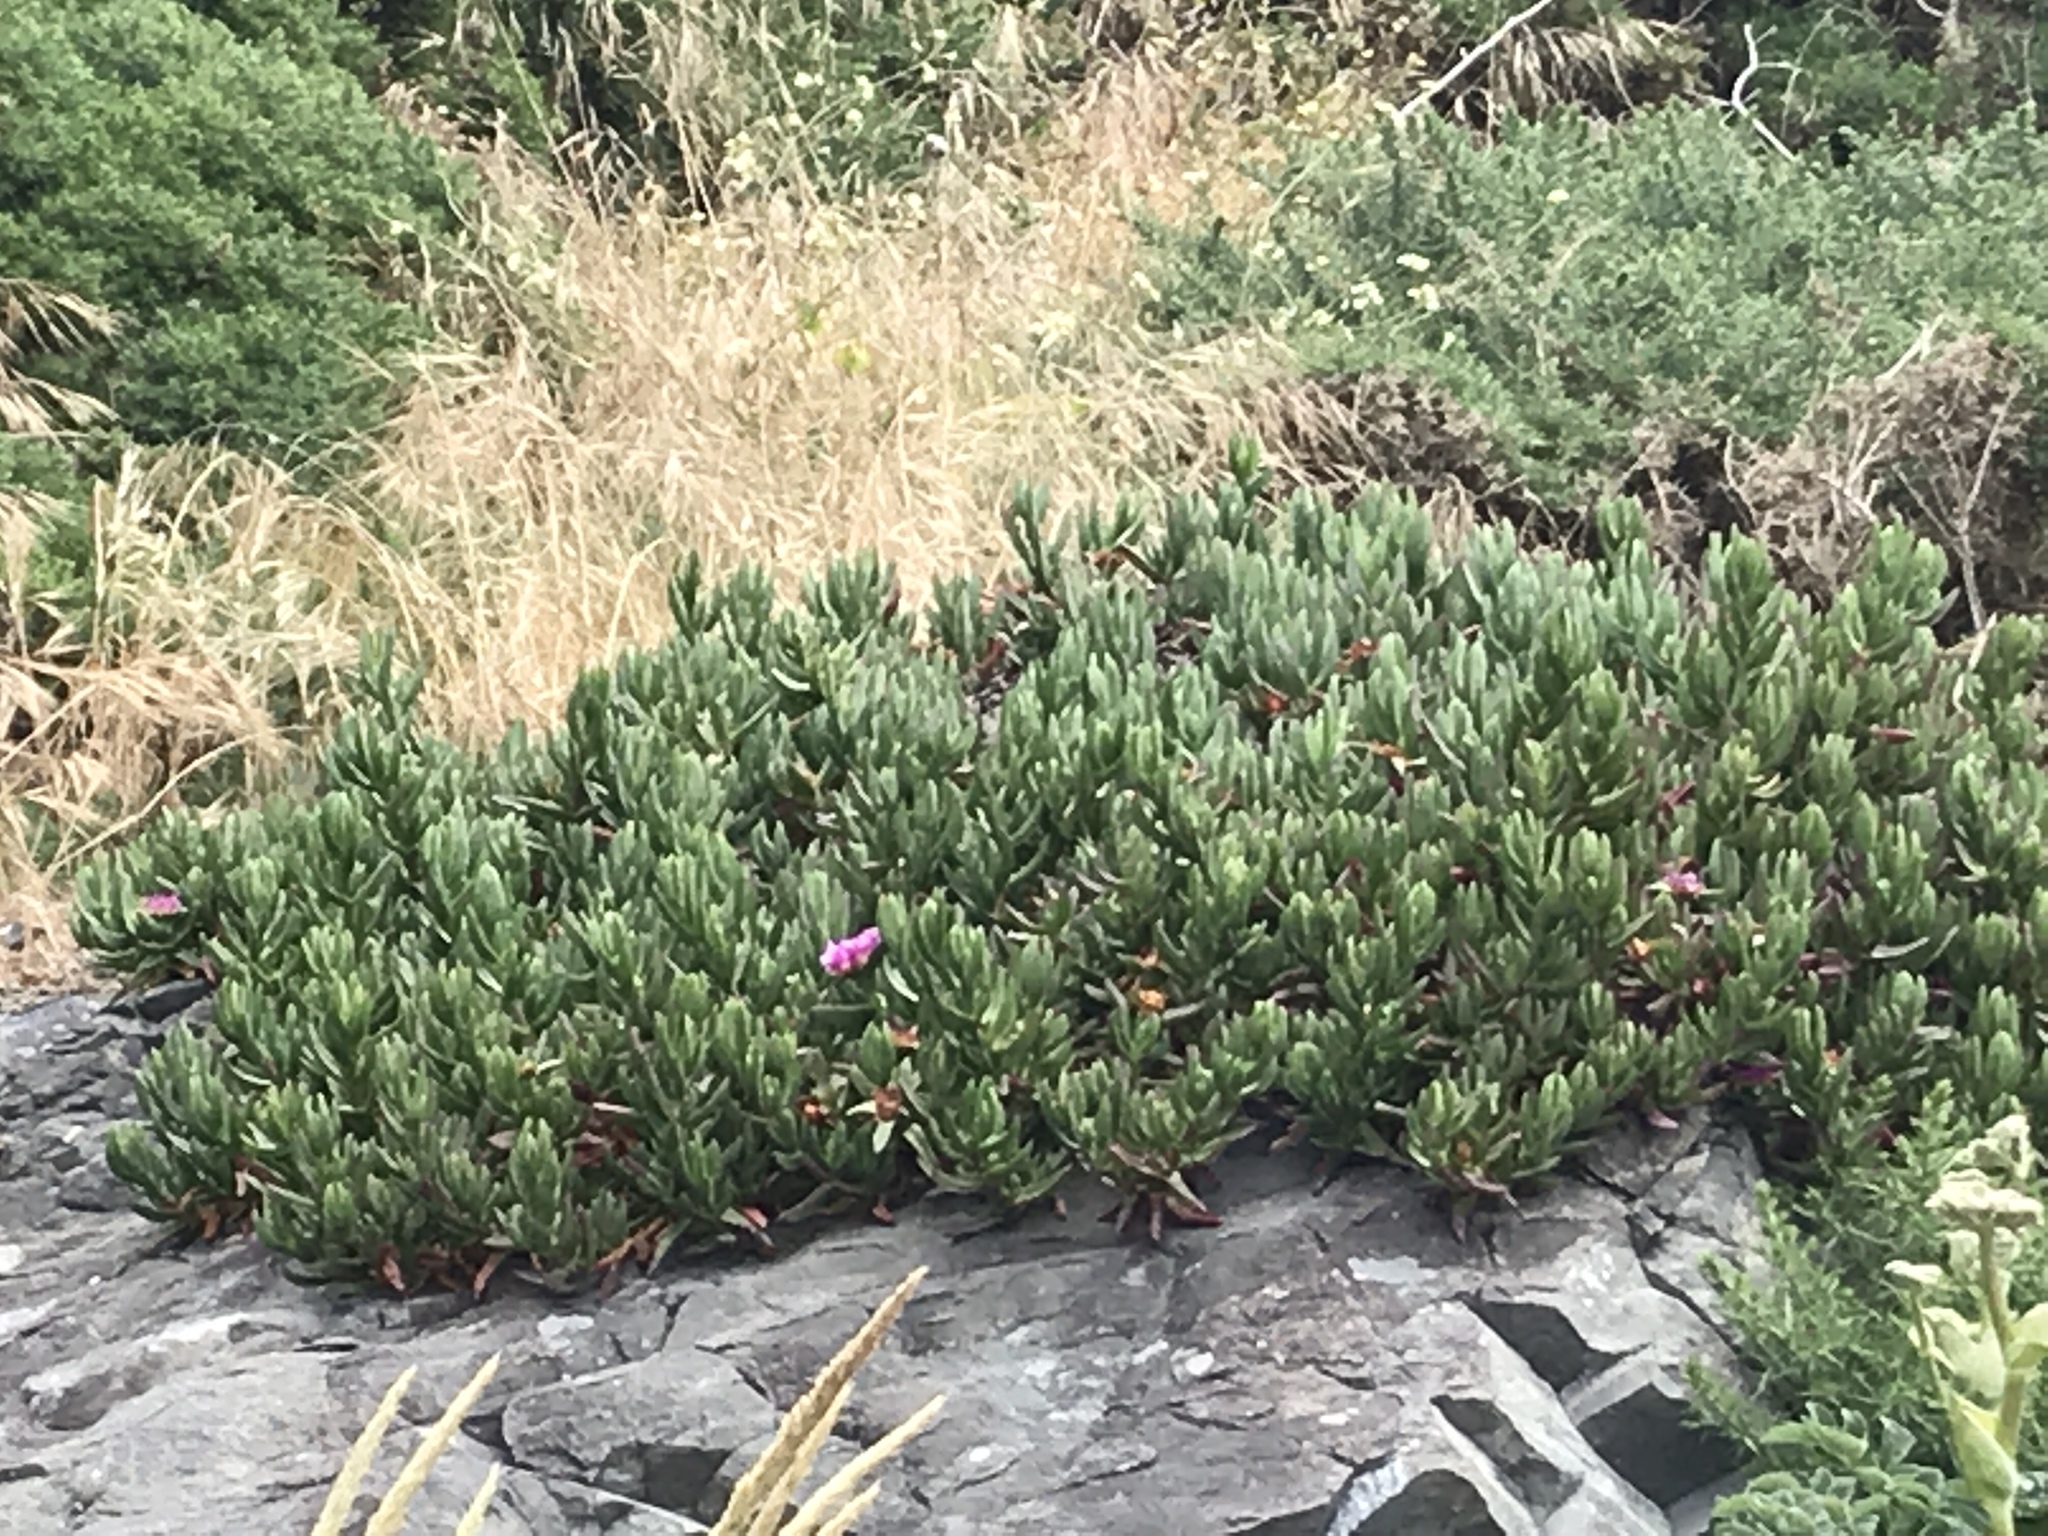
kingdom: Plantae
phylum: Tracheophyta
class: Magnoliopsida
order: Caryophyllales
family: Aizoaceae
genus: Carpobrotus
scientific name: Carpobrotus chilensis
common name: Sea fig
